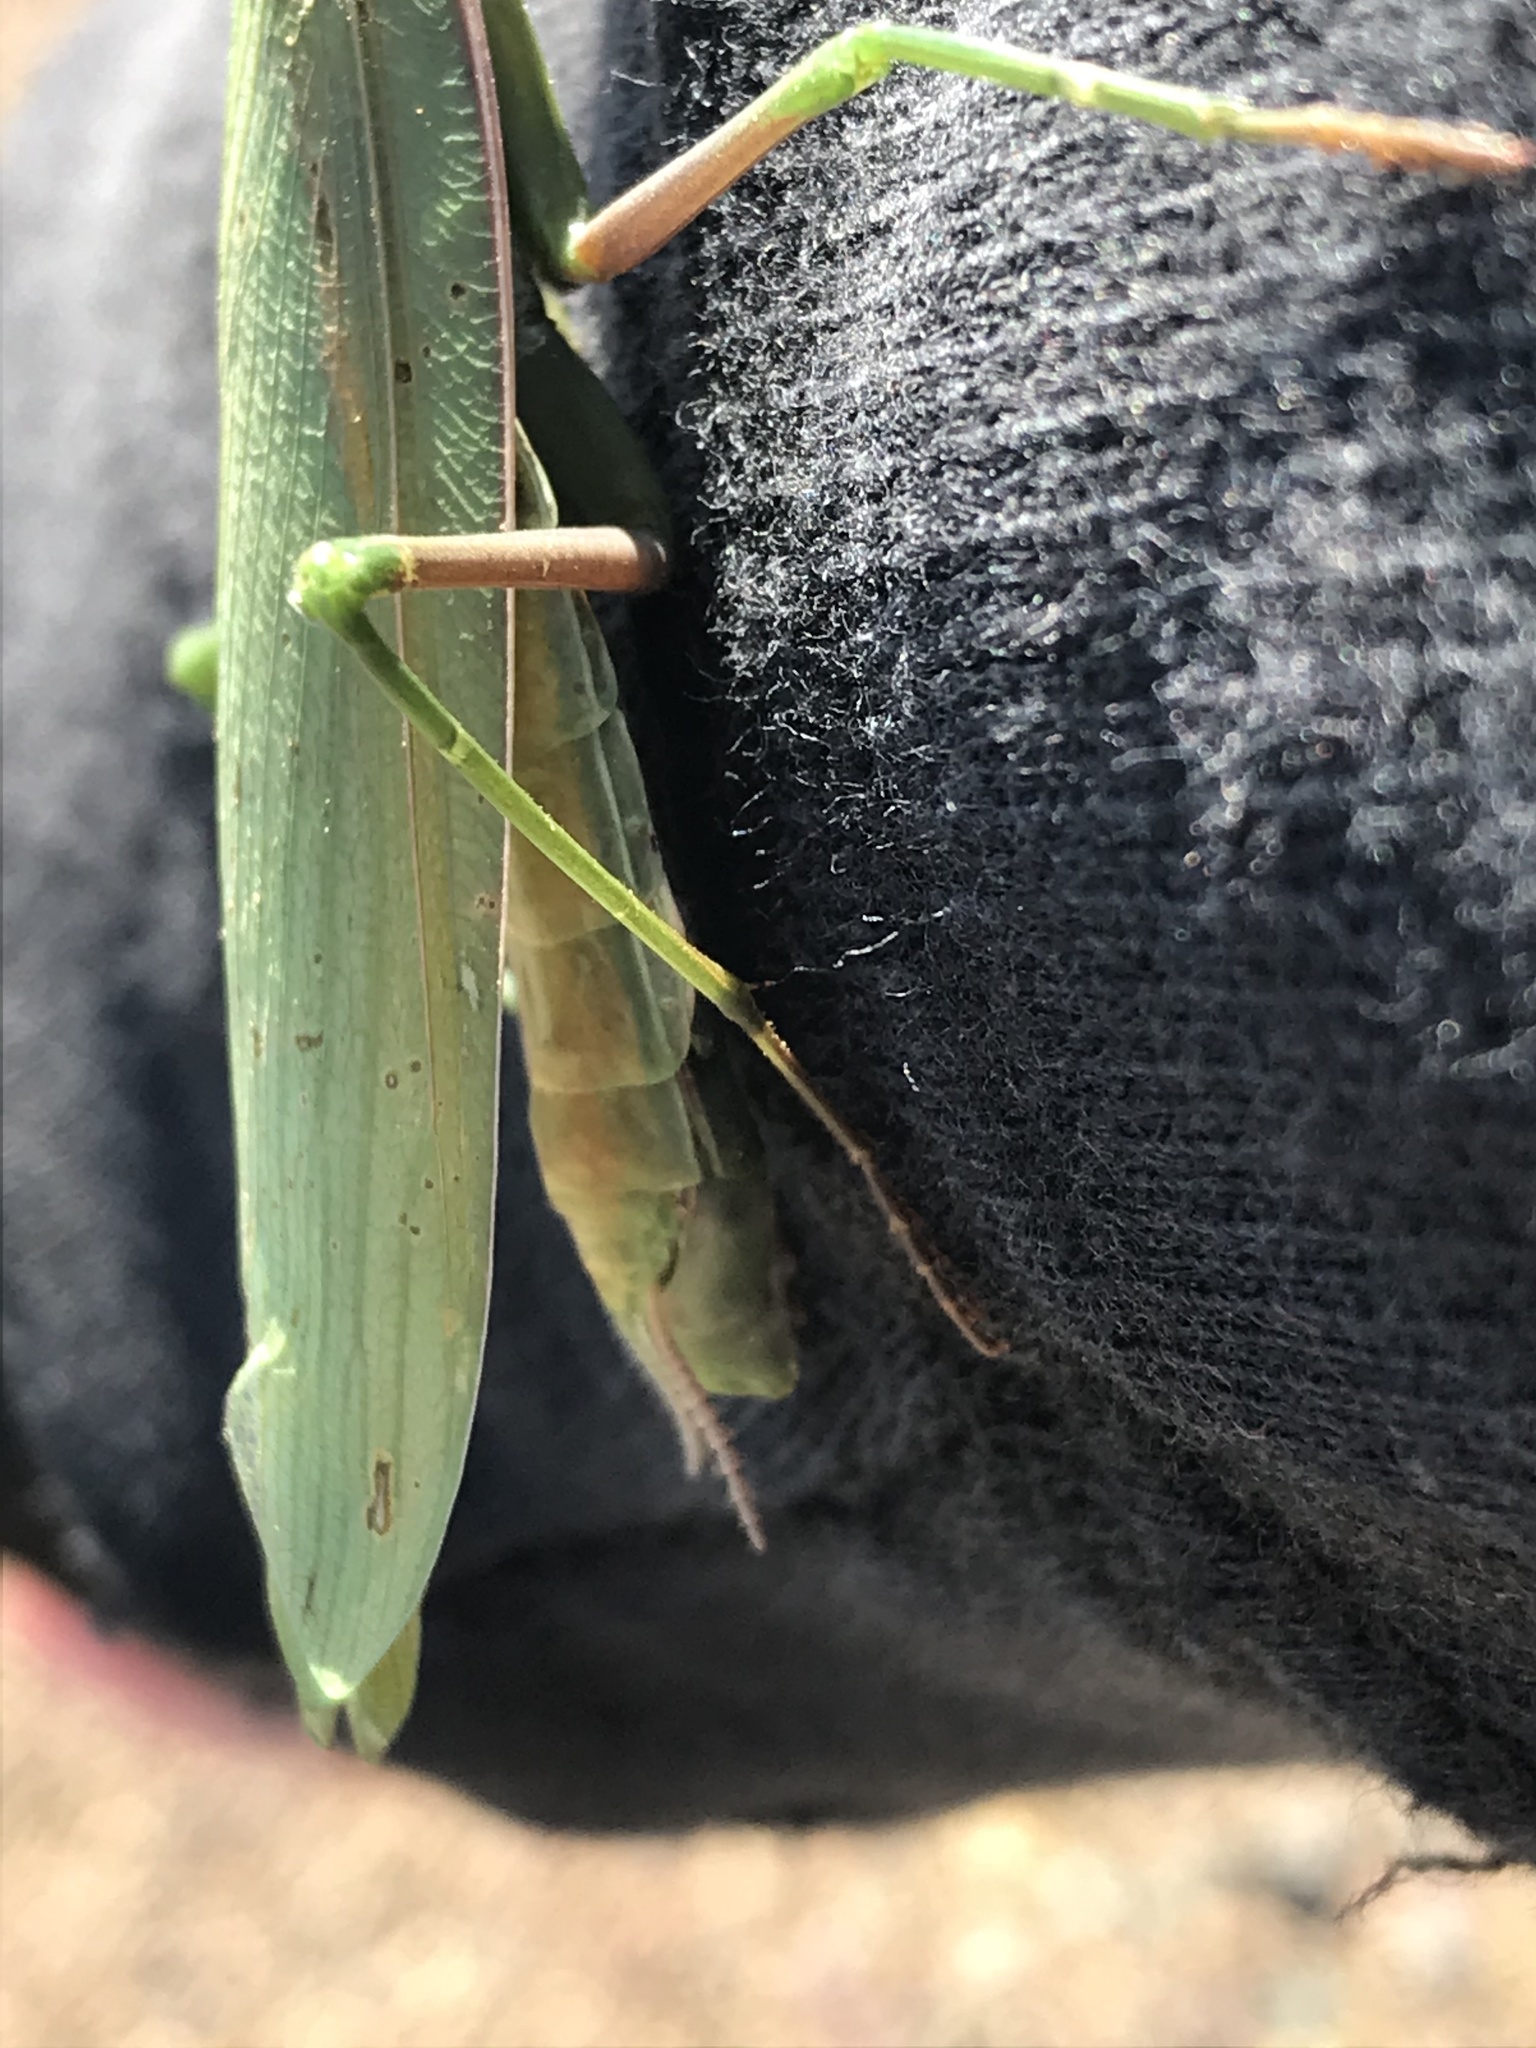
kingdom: Animalia
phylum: Arthropoda
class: Insecta
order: Mantodea
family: Mantidae
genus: Mantis
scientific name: Mantis religiosa
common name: Praying mantis
